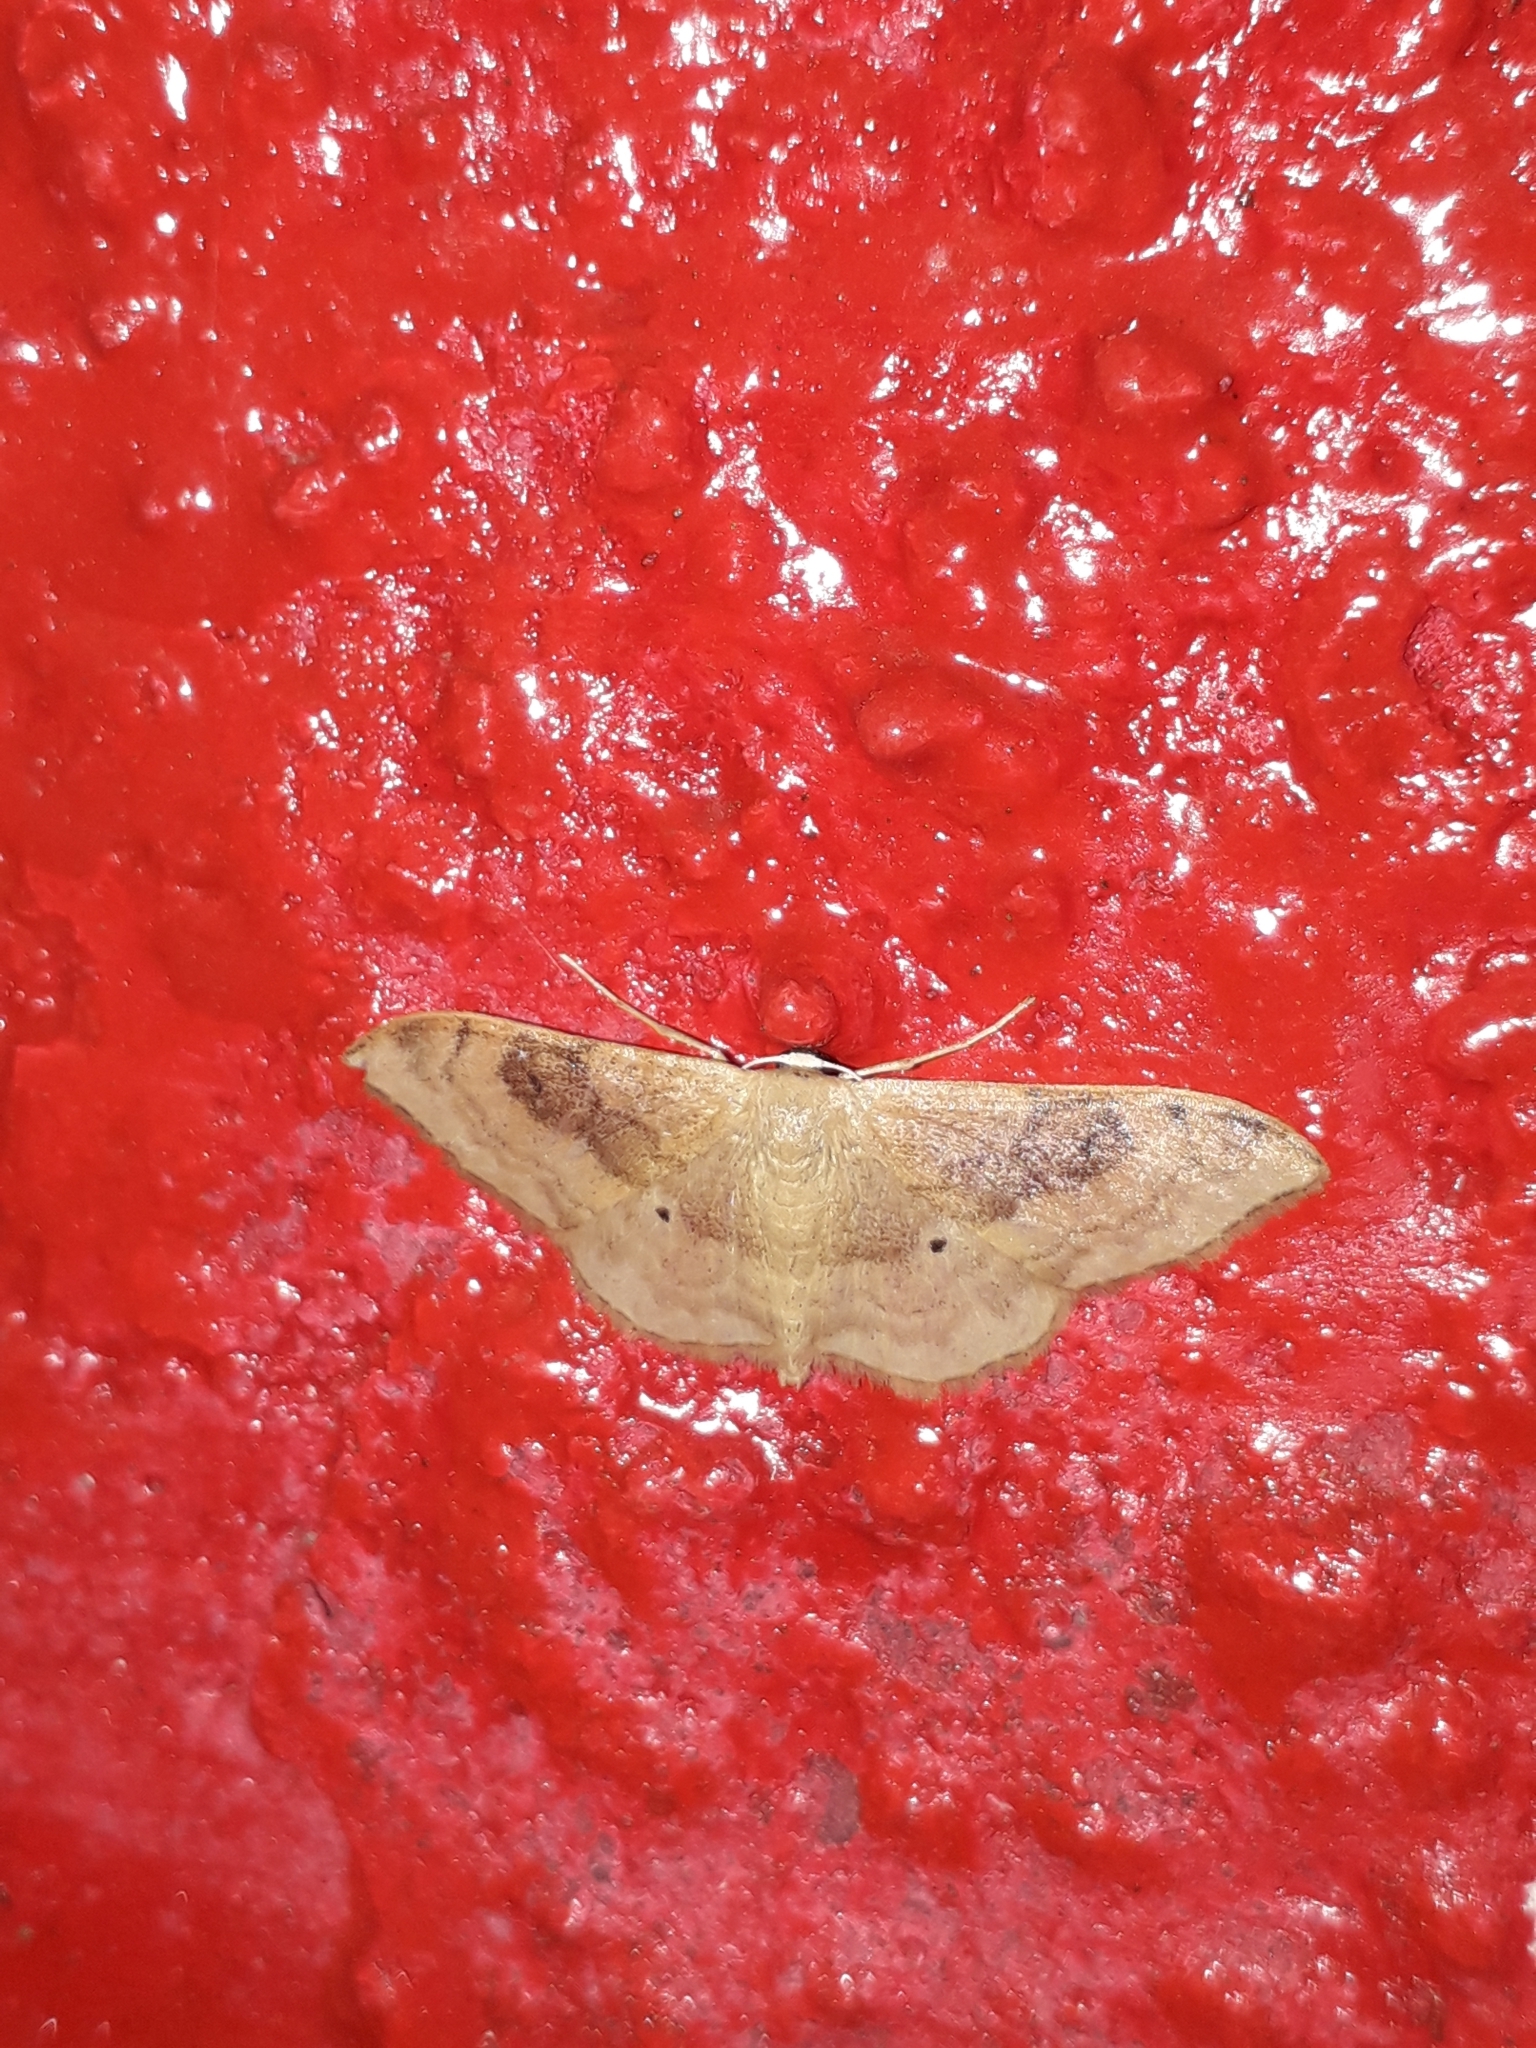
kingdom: Animalia
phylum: Arthropoda
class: Insecta
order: Lepidoptera
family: Geometridae
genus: Idaea
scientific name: Idaea degeneraria
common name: Portland ribbon wave
